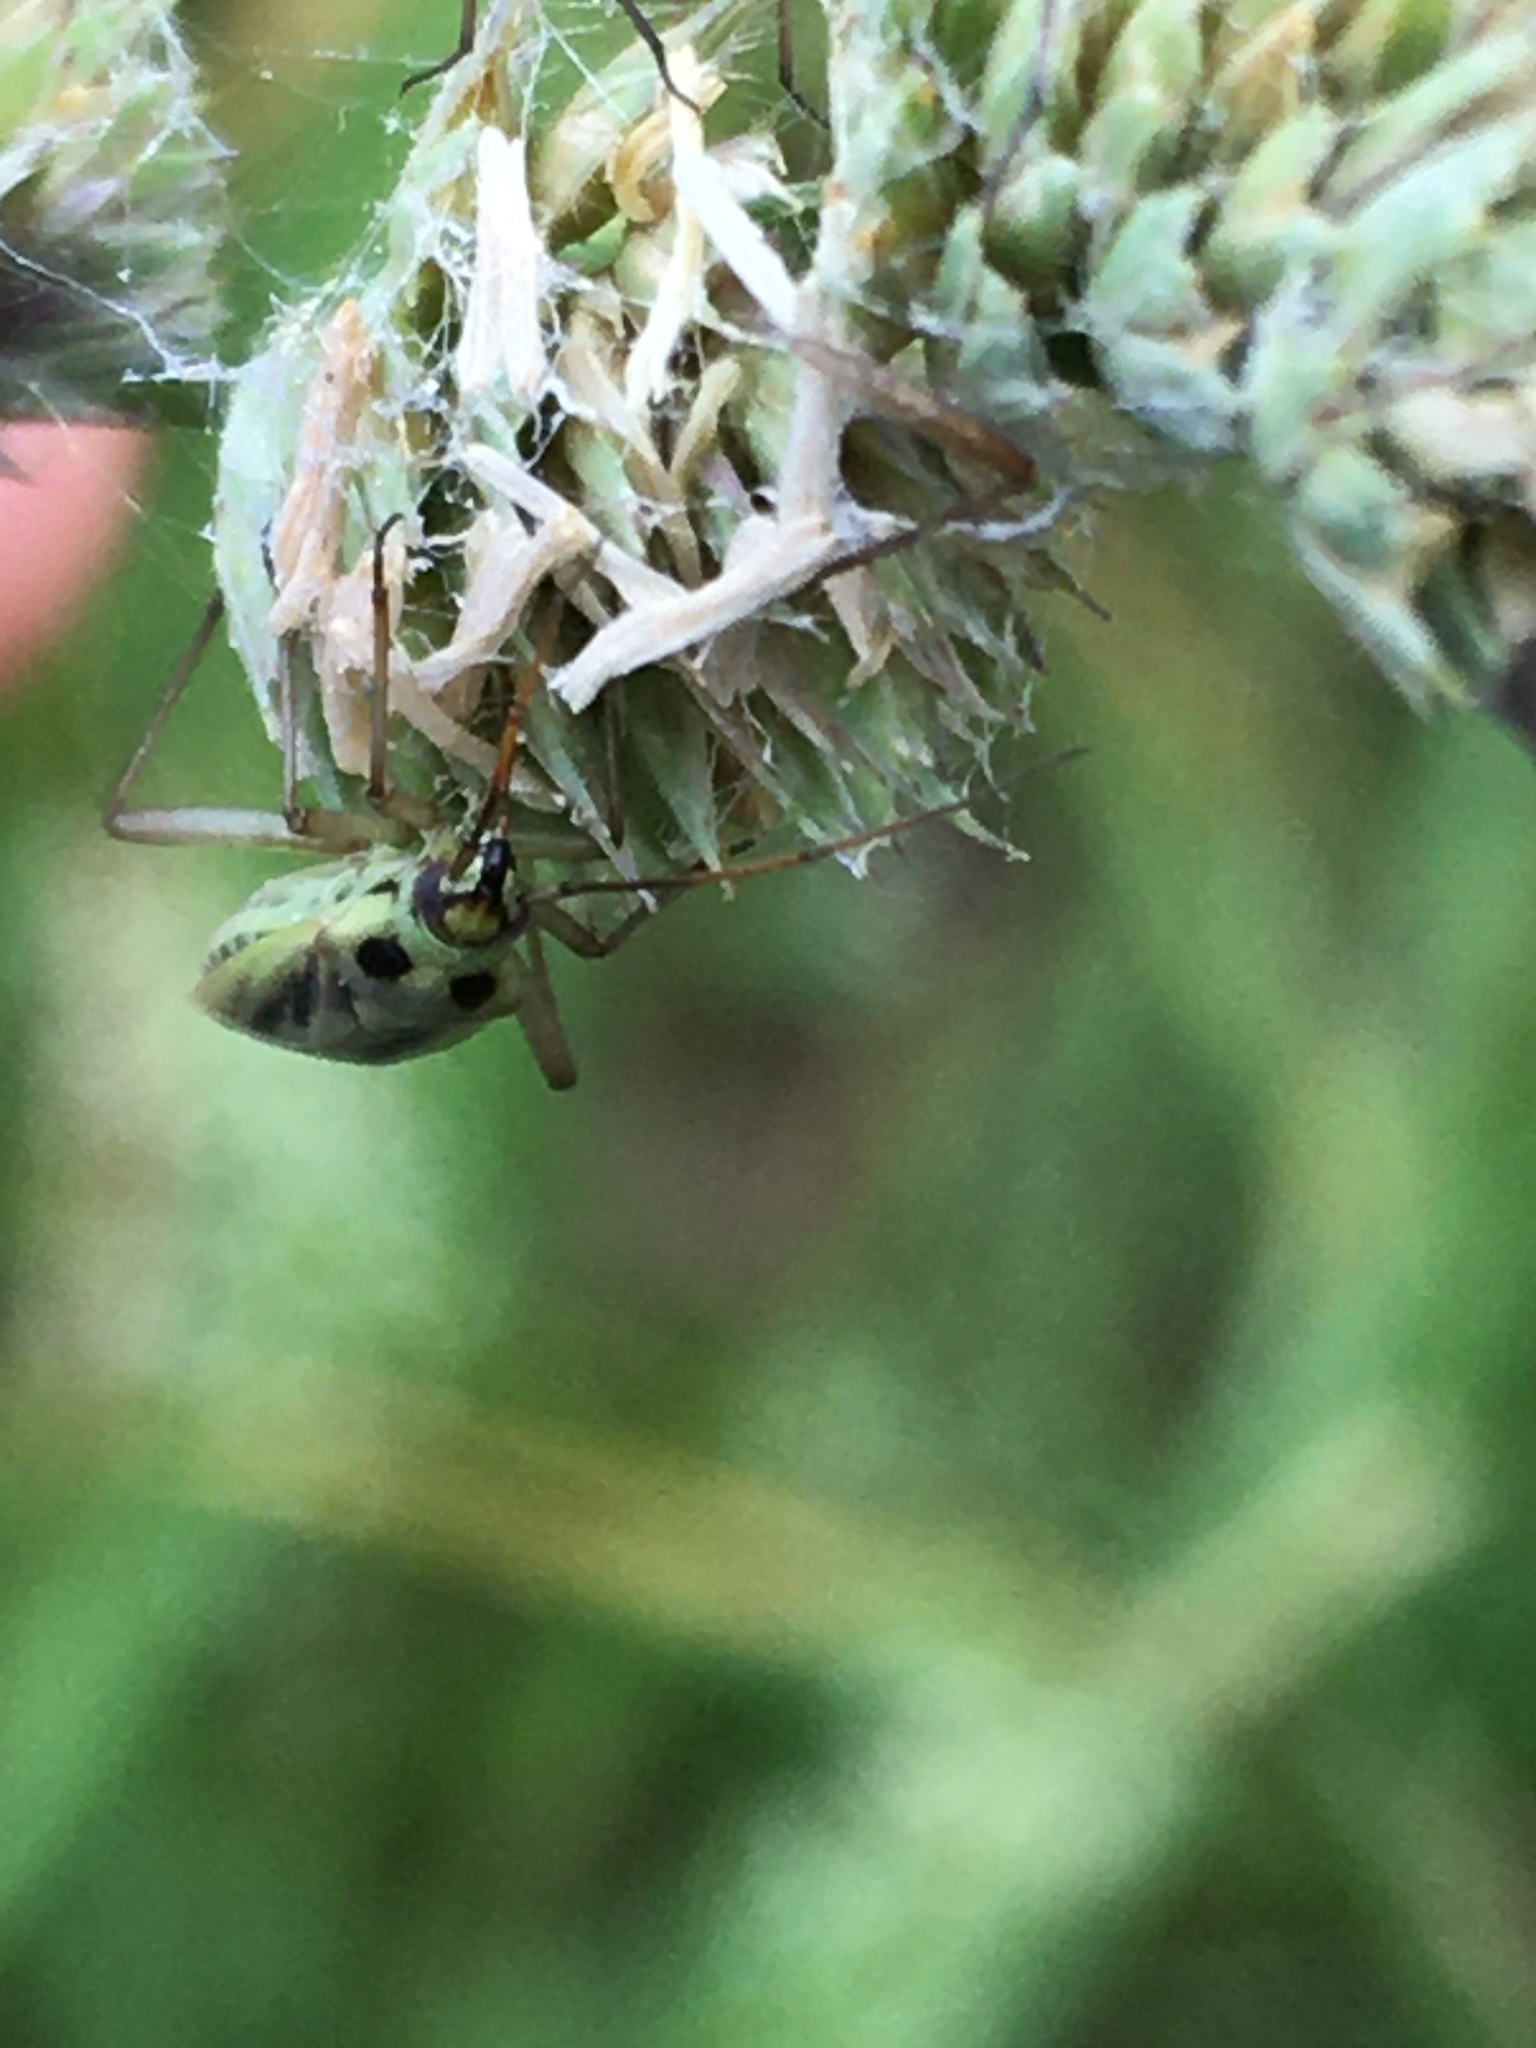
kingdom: Animalia
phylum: Arthropoda
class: Insecta
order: Hemiptera
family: Miridae
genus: Stenotus
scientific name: Stenotus binotatus
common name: Plant bug
